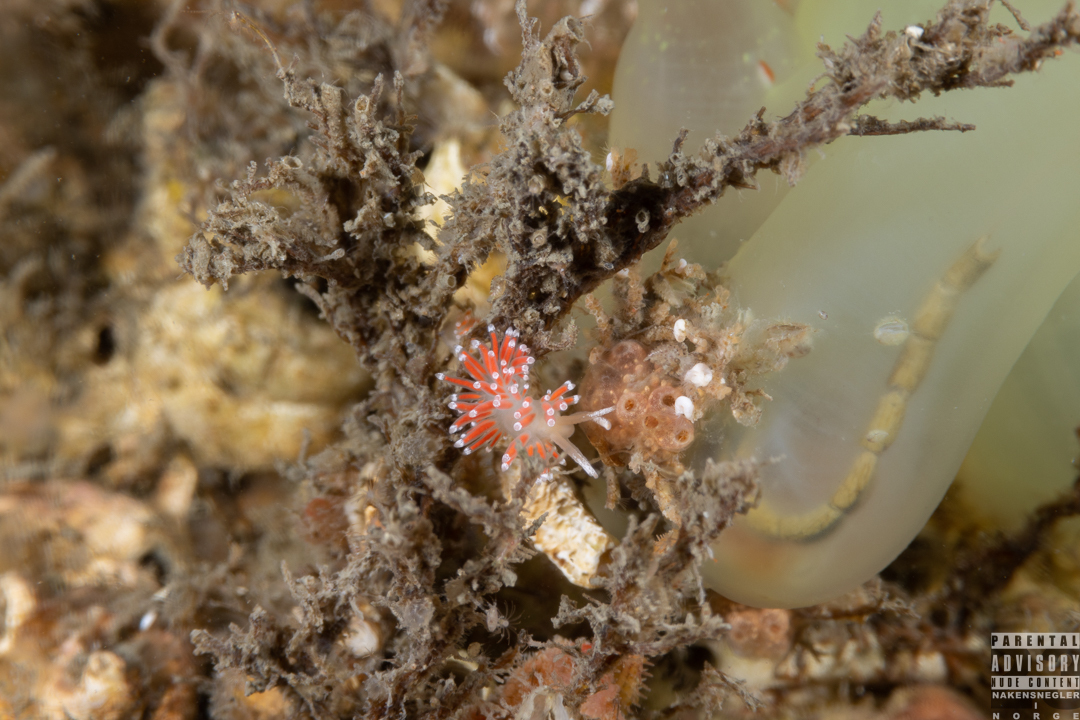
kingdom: Animalia
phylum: Mollusca
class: Gastropoda
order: Nudibranchia
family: Coryphellidae
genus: Coryphella
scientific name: Coryphella gracilis
